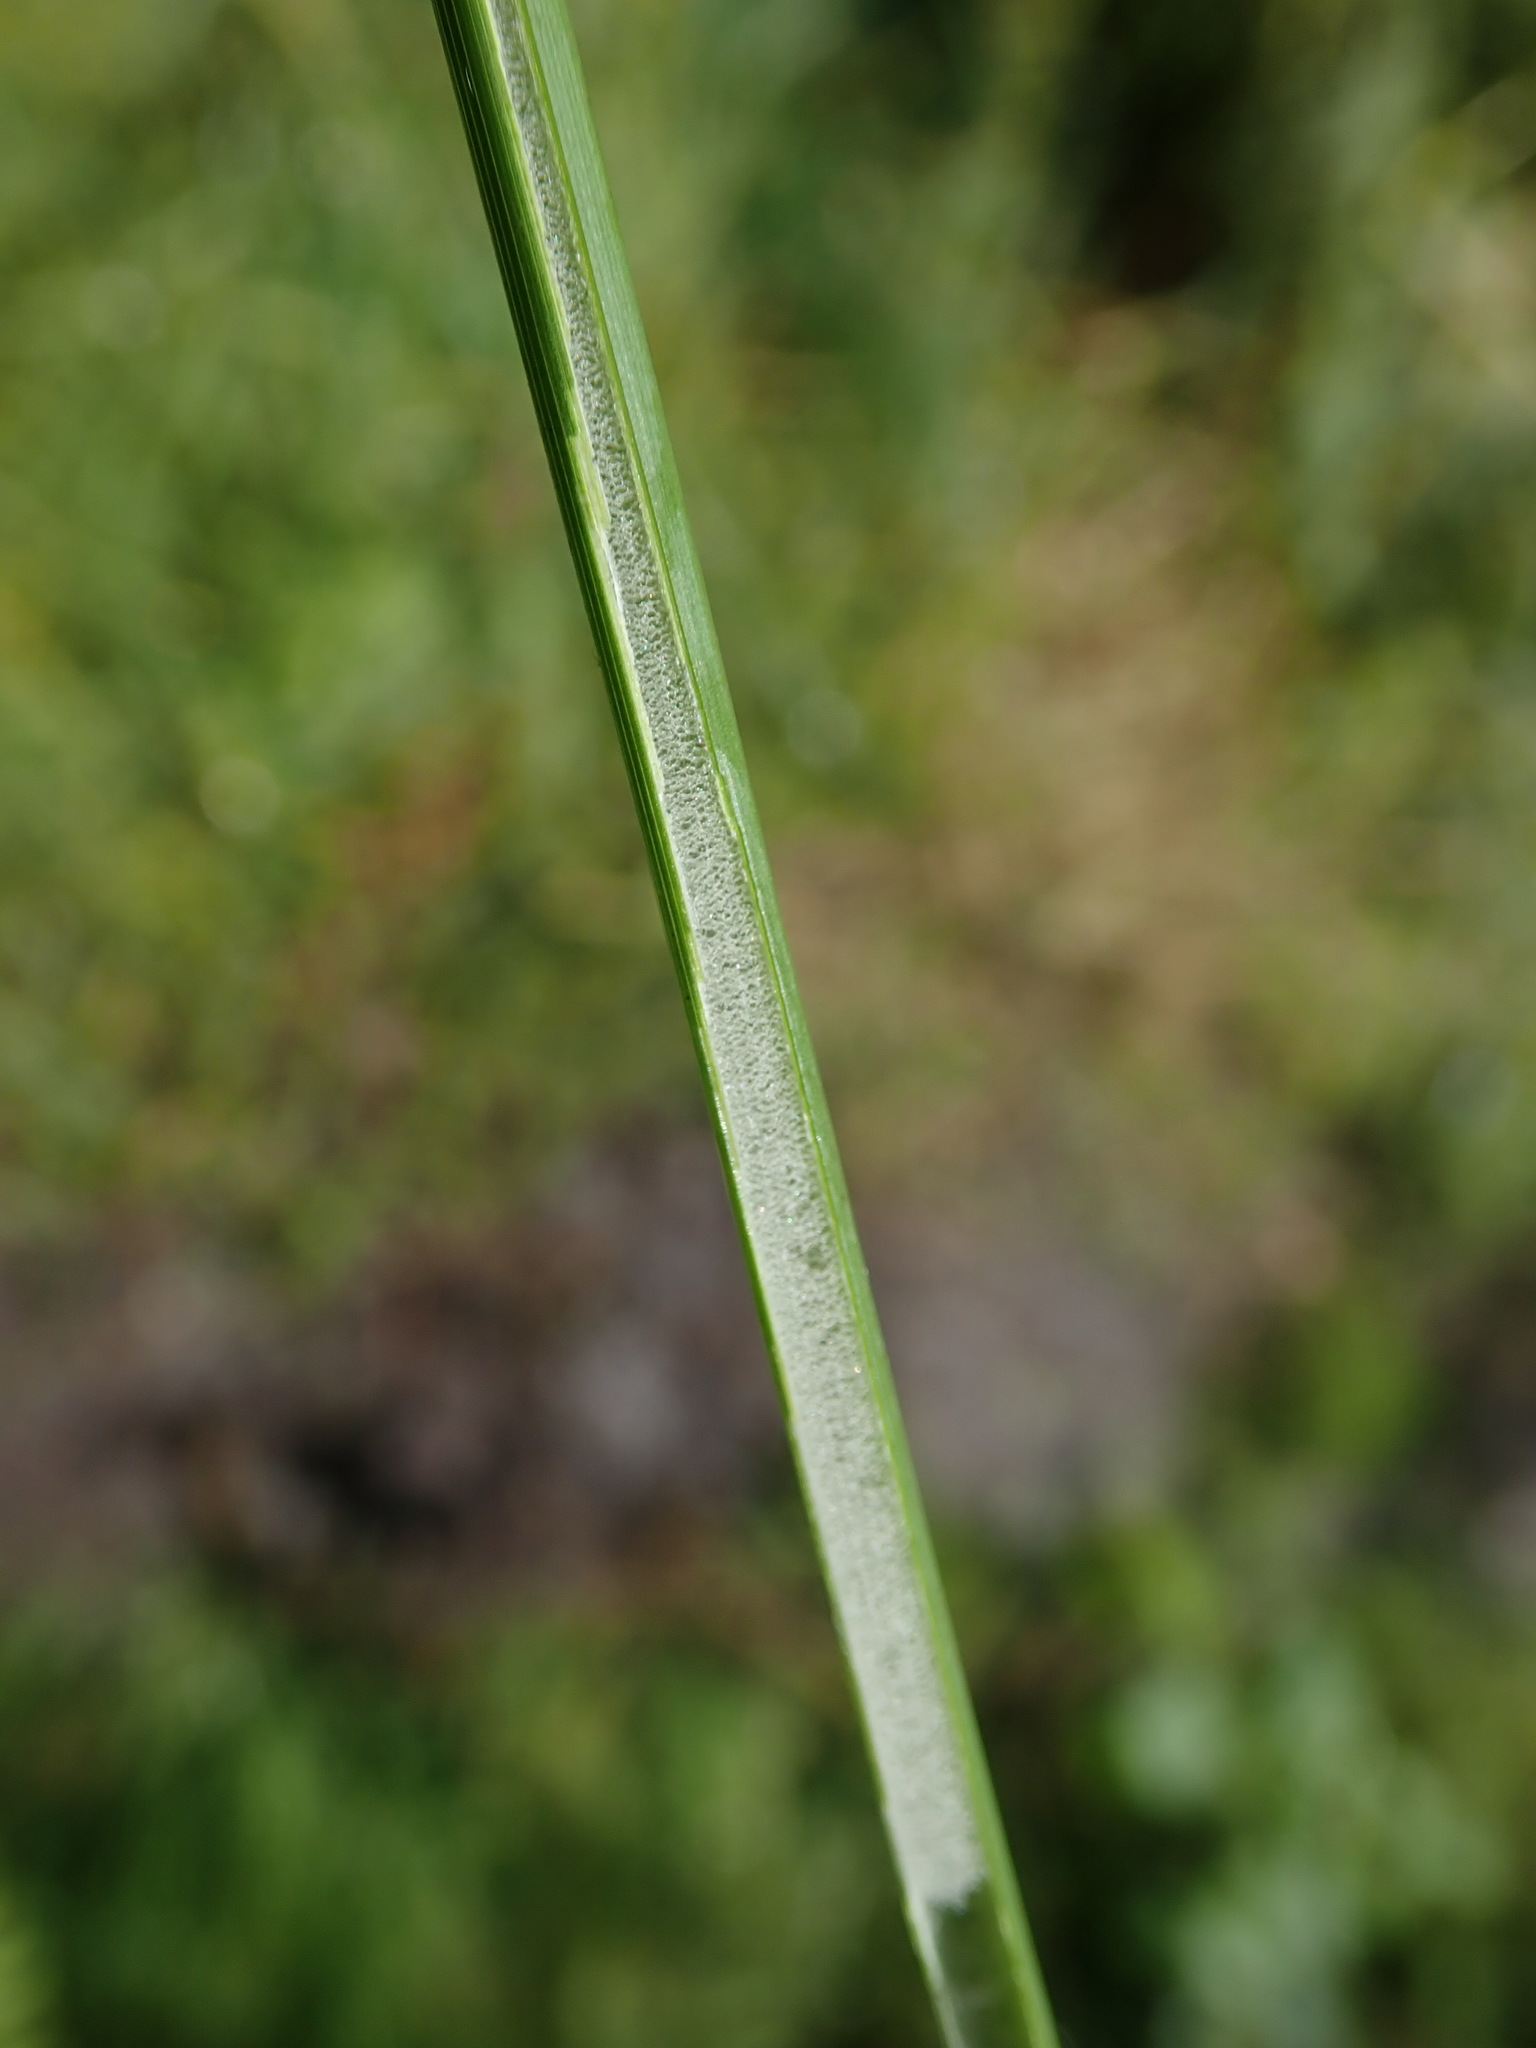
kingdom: Plantae
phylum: Tracheophyta
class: Liliopsida
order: Poales
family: Juncaceae
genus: Juncus
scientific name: Juncus effusus
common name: Soft rush
